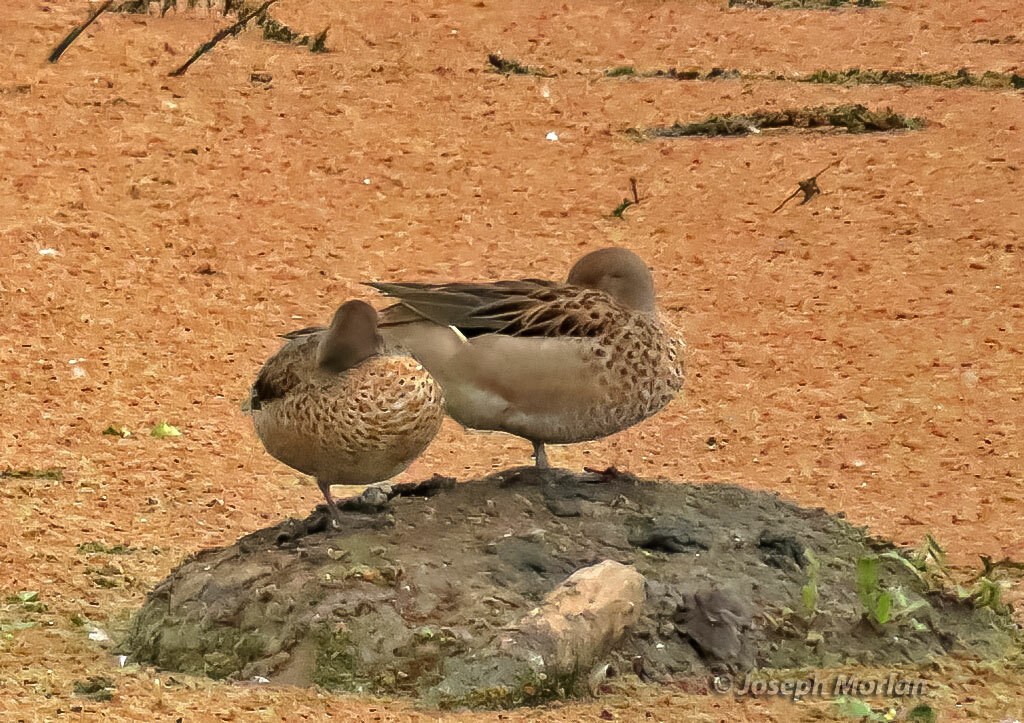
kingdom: Animalia
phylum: Chordata
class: Aves
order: Anseriformes
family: Anatidae
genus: Anas
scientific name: Anas flavirostris
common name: Yellow-billed teal
